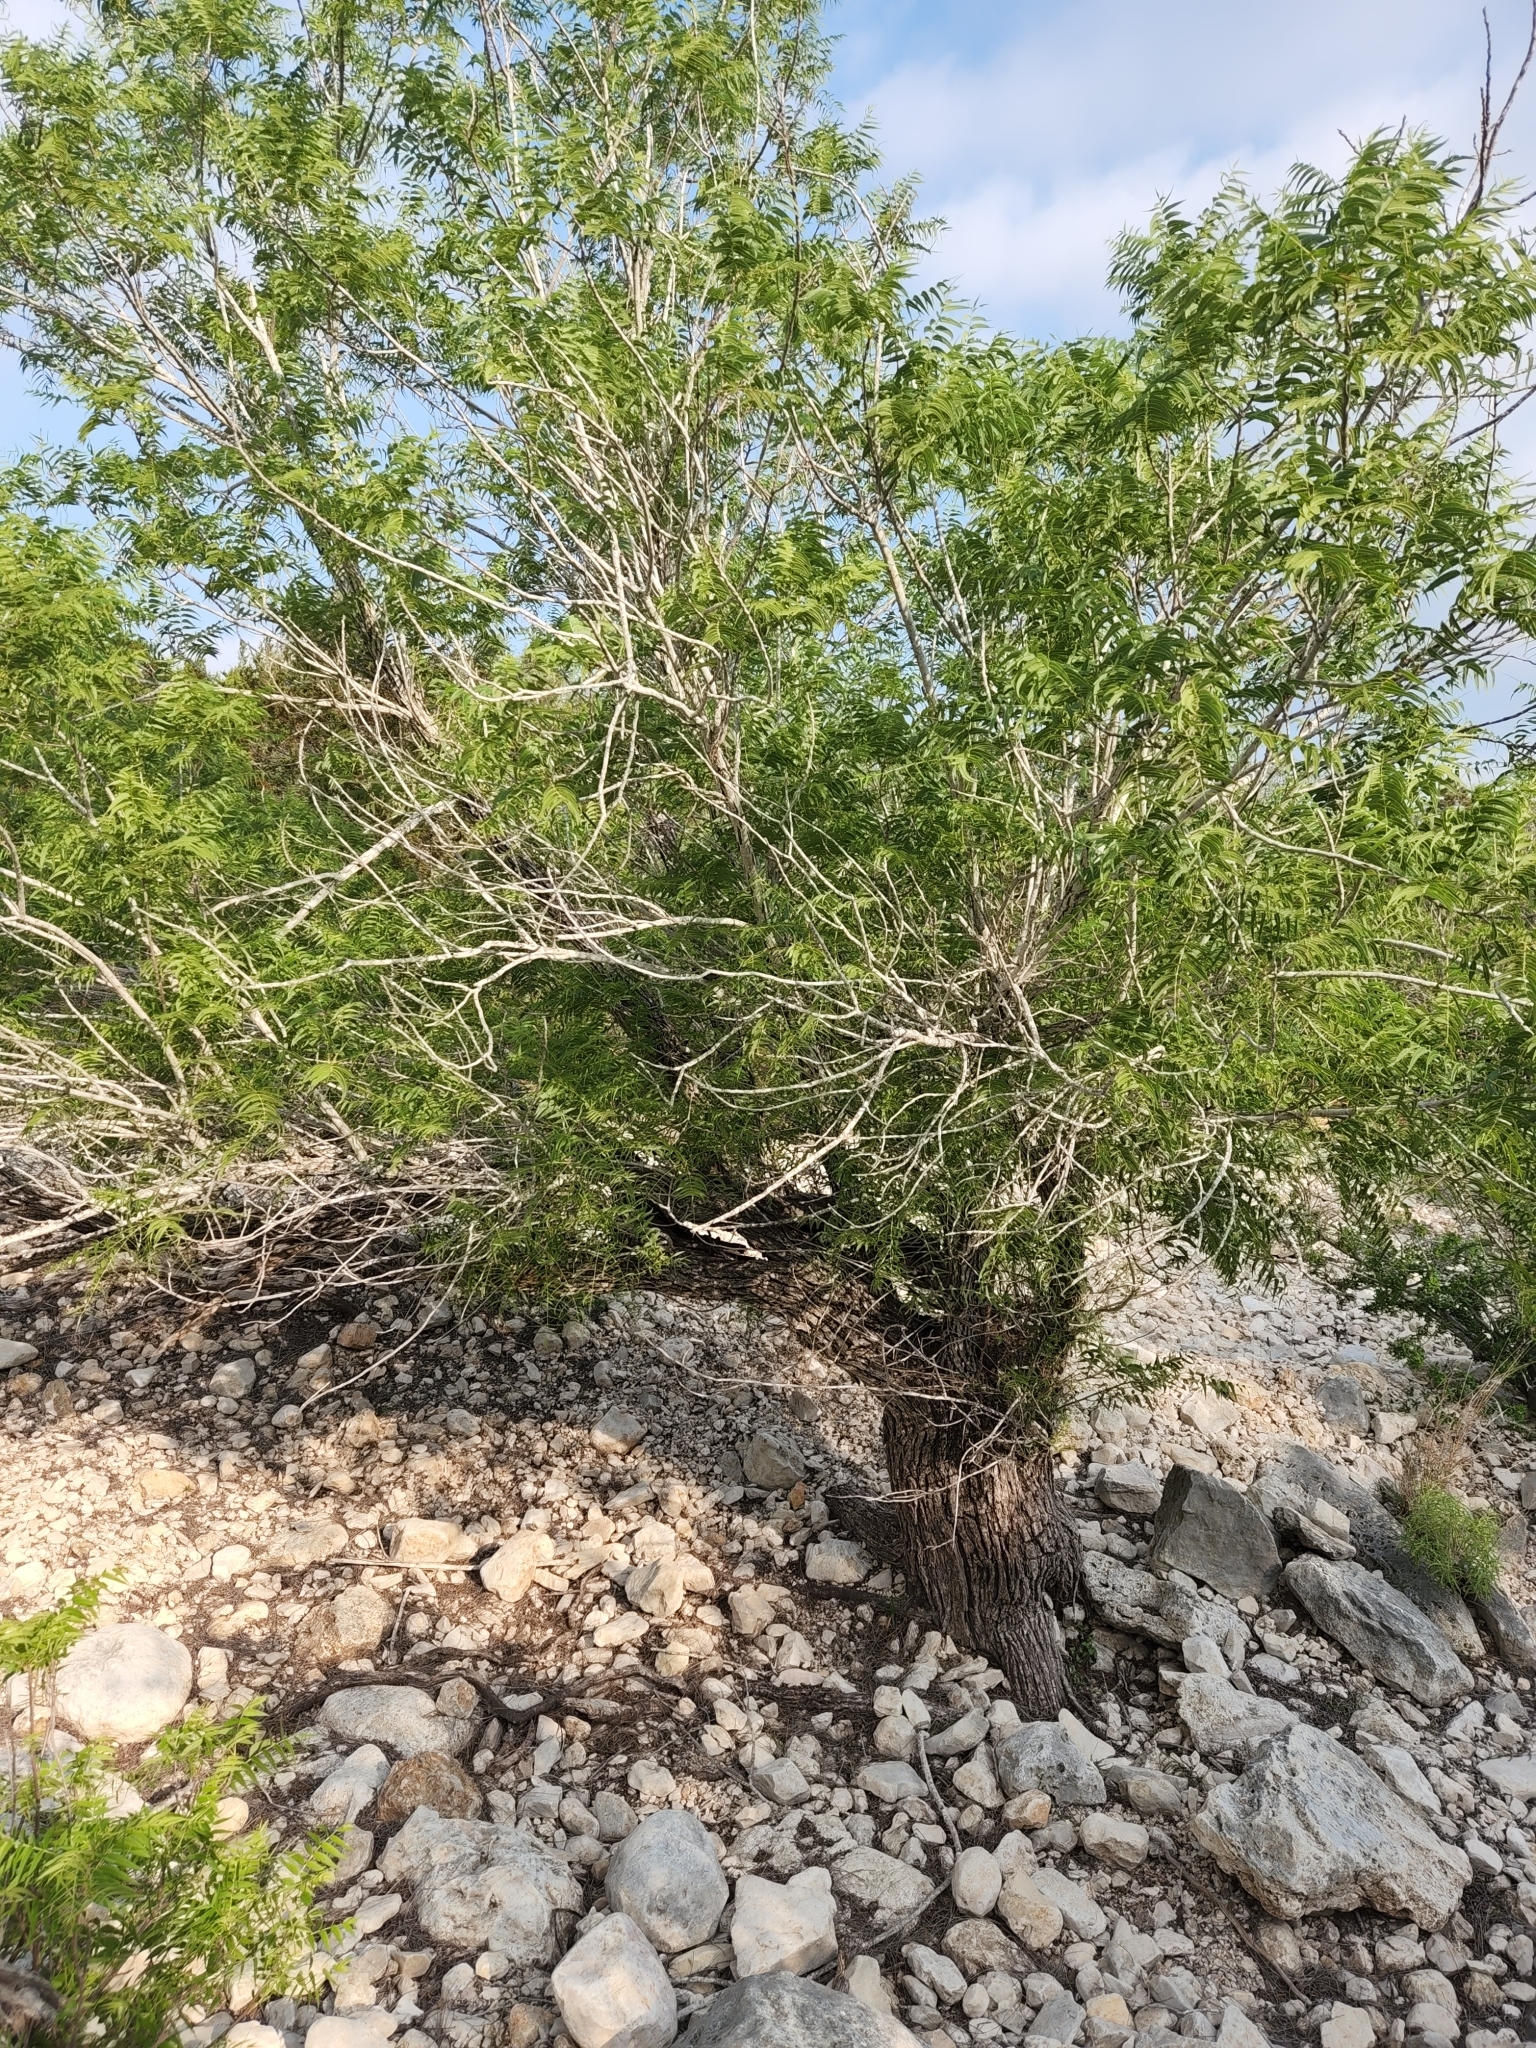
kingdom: Plantae
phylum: Tracheophyta
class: Magnoliopsida
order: Fagales
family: Juglandaceae
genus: Juglans
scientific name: Juglans microcarpa
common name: Texas walnut
